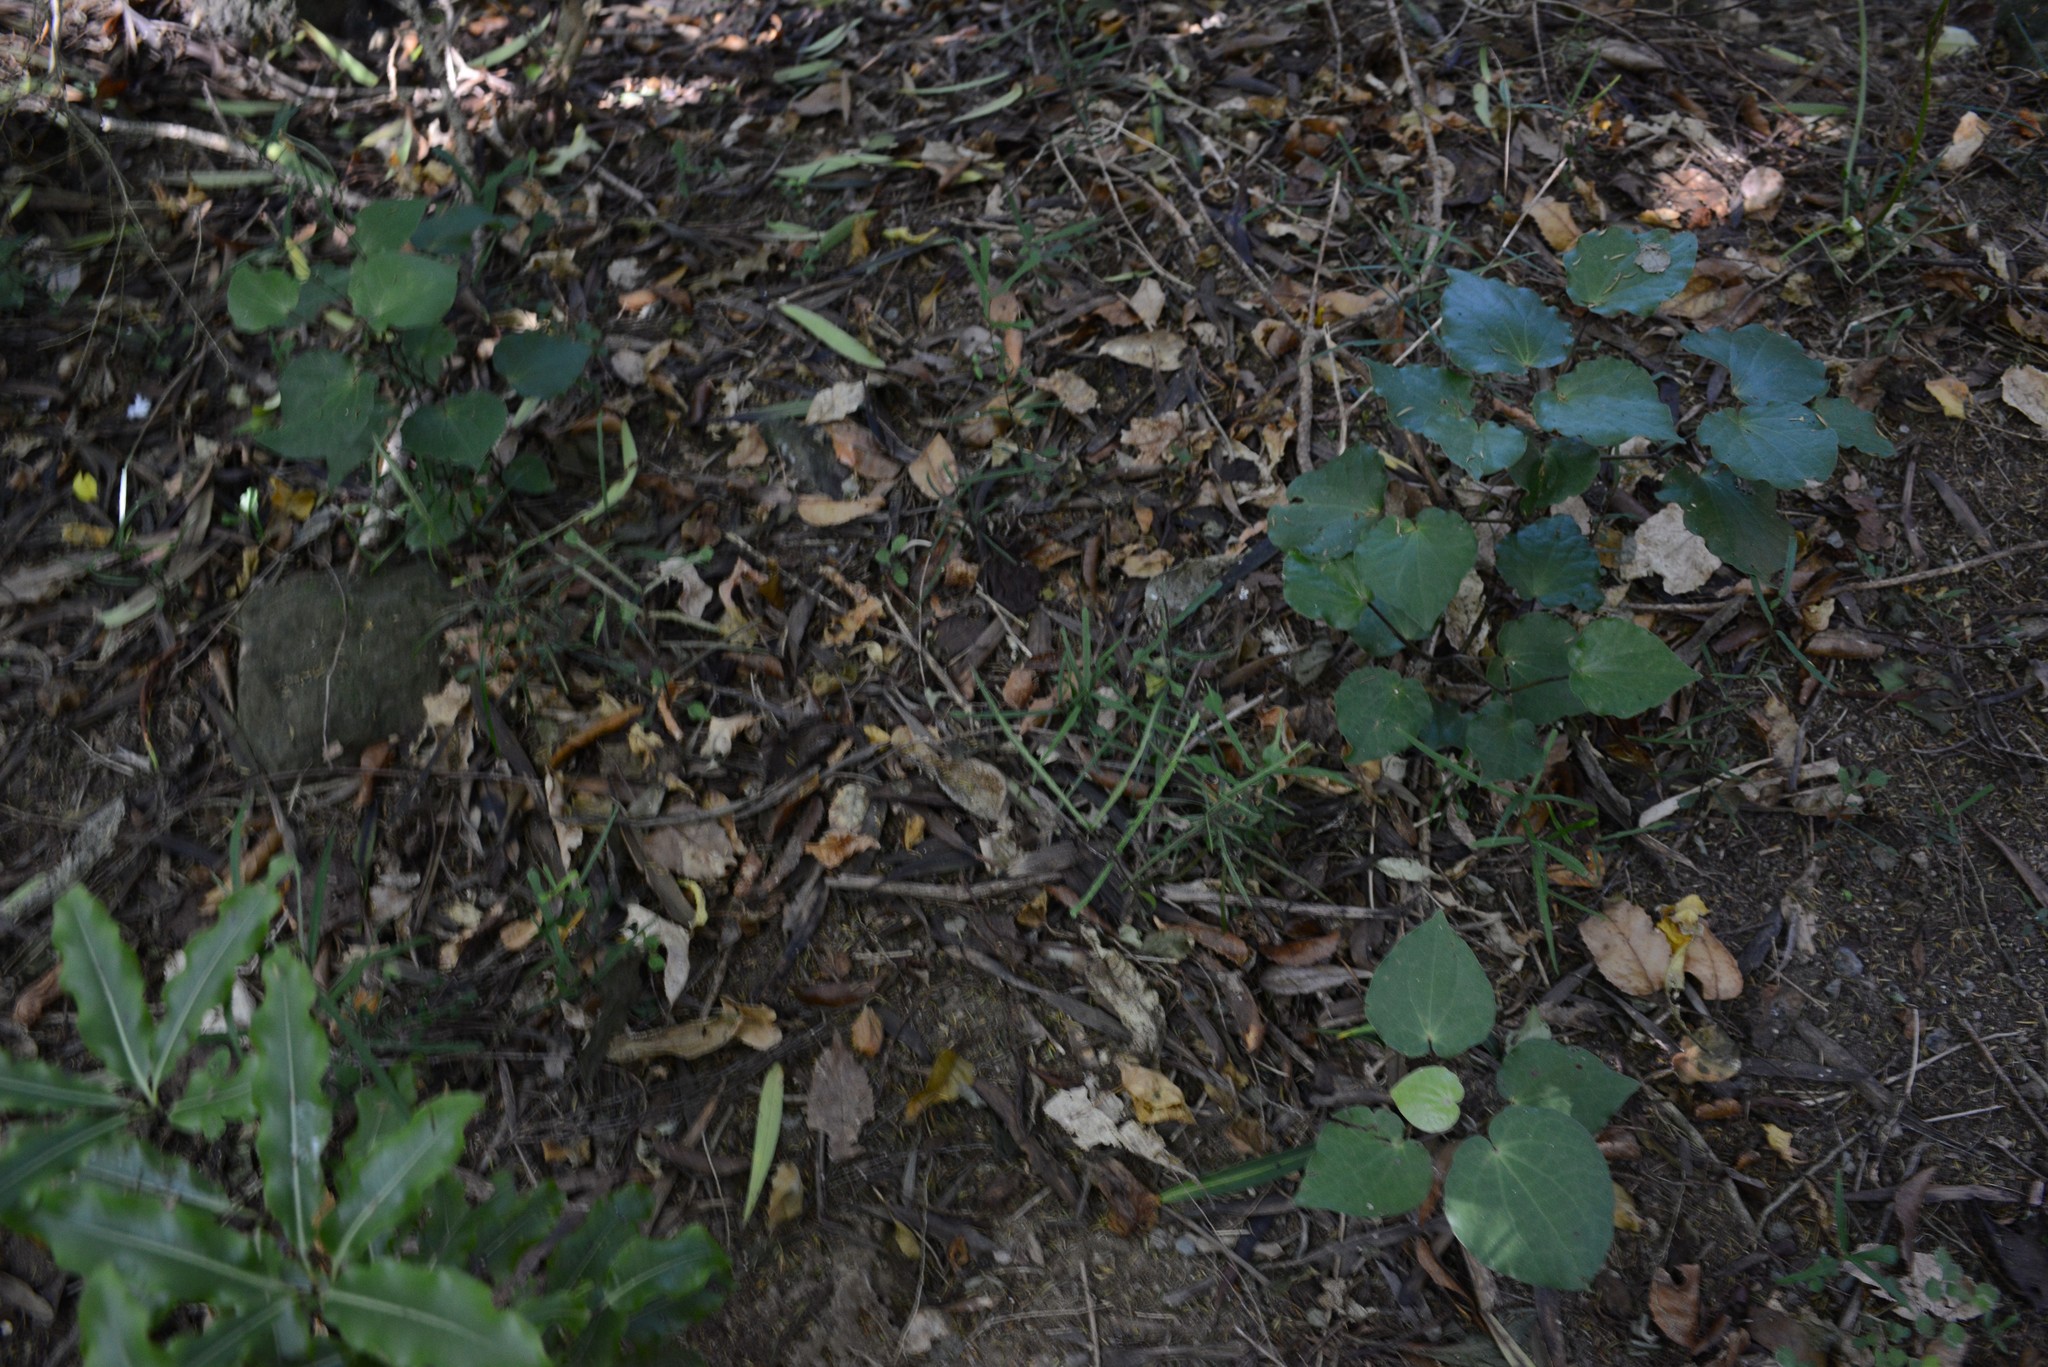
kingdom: Plantae
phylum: Tracheophyta
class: Magnoliopsida
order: Piperales
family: Piperaceae
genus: Macropiper
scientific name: Macropiper excelsum
